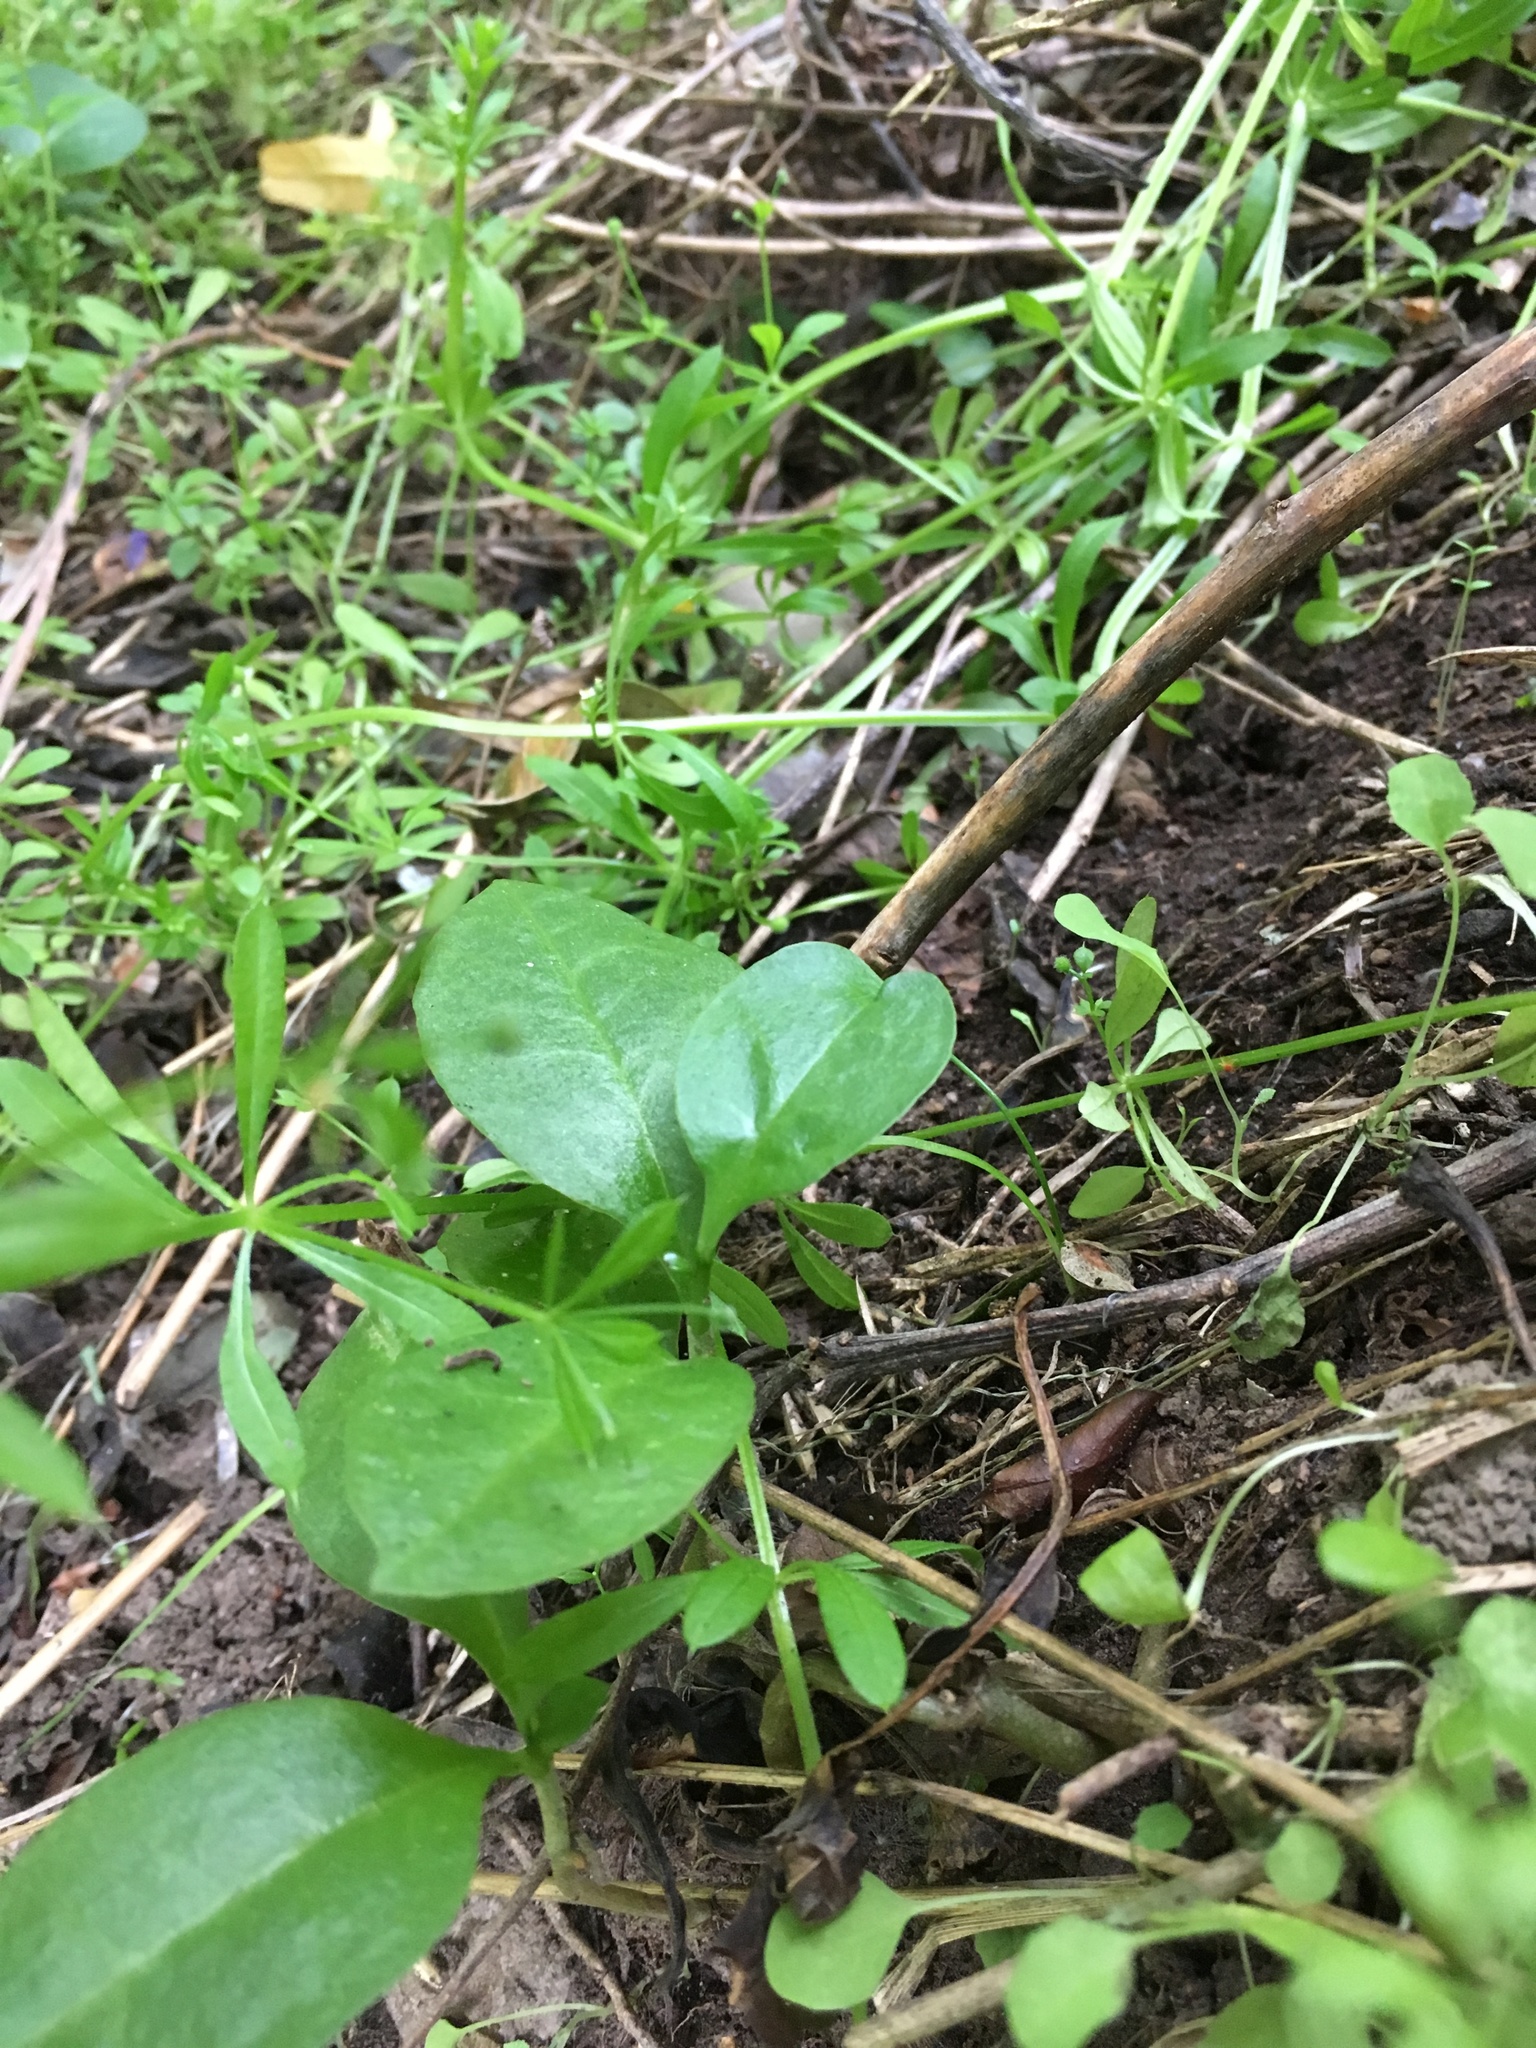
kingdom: Plantae
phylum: Tracheophyta
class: Magnoliopsida
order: Caryophyllales
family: Basellaceae
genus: Anredera
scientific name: Anredera cordifolia
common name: Heartleaf madeiravine
